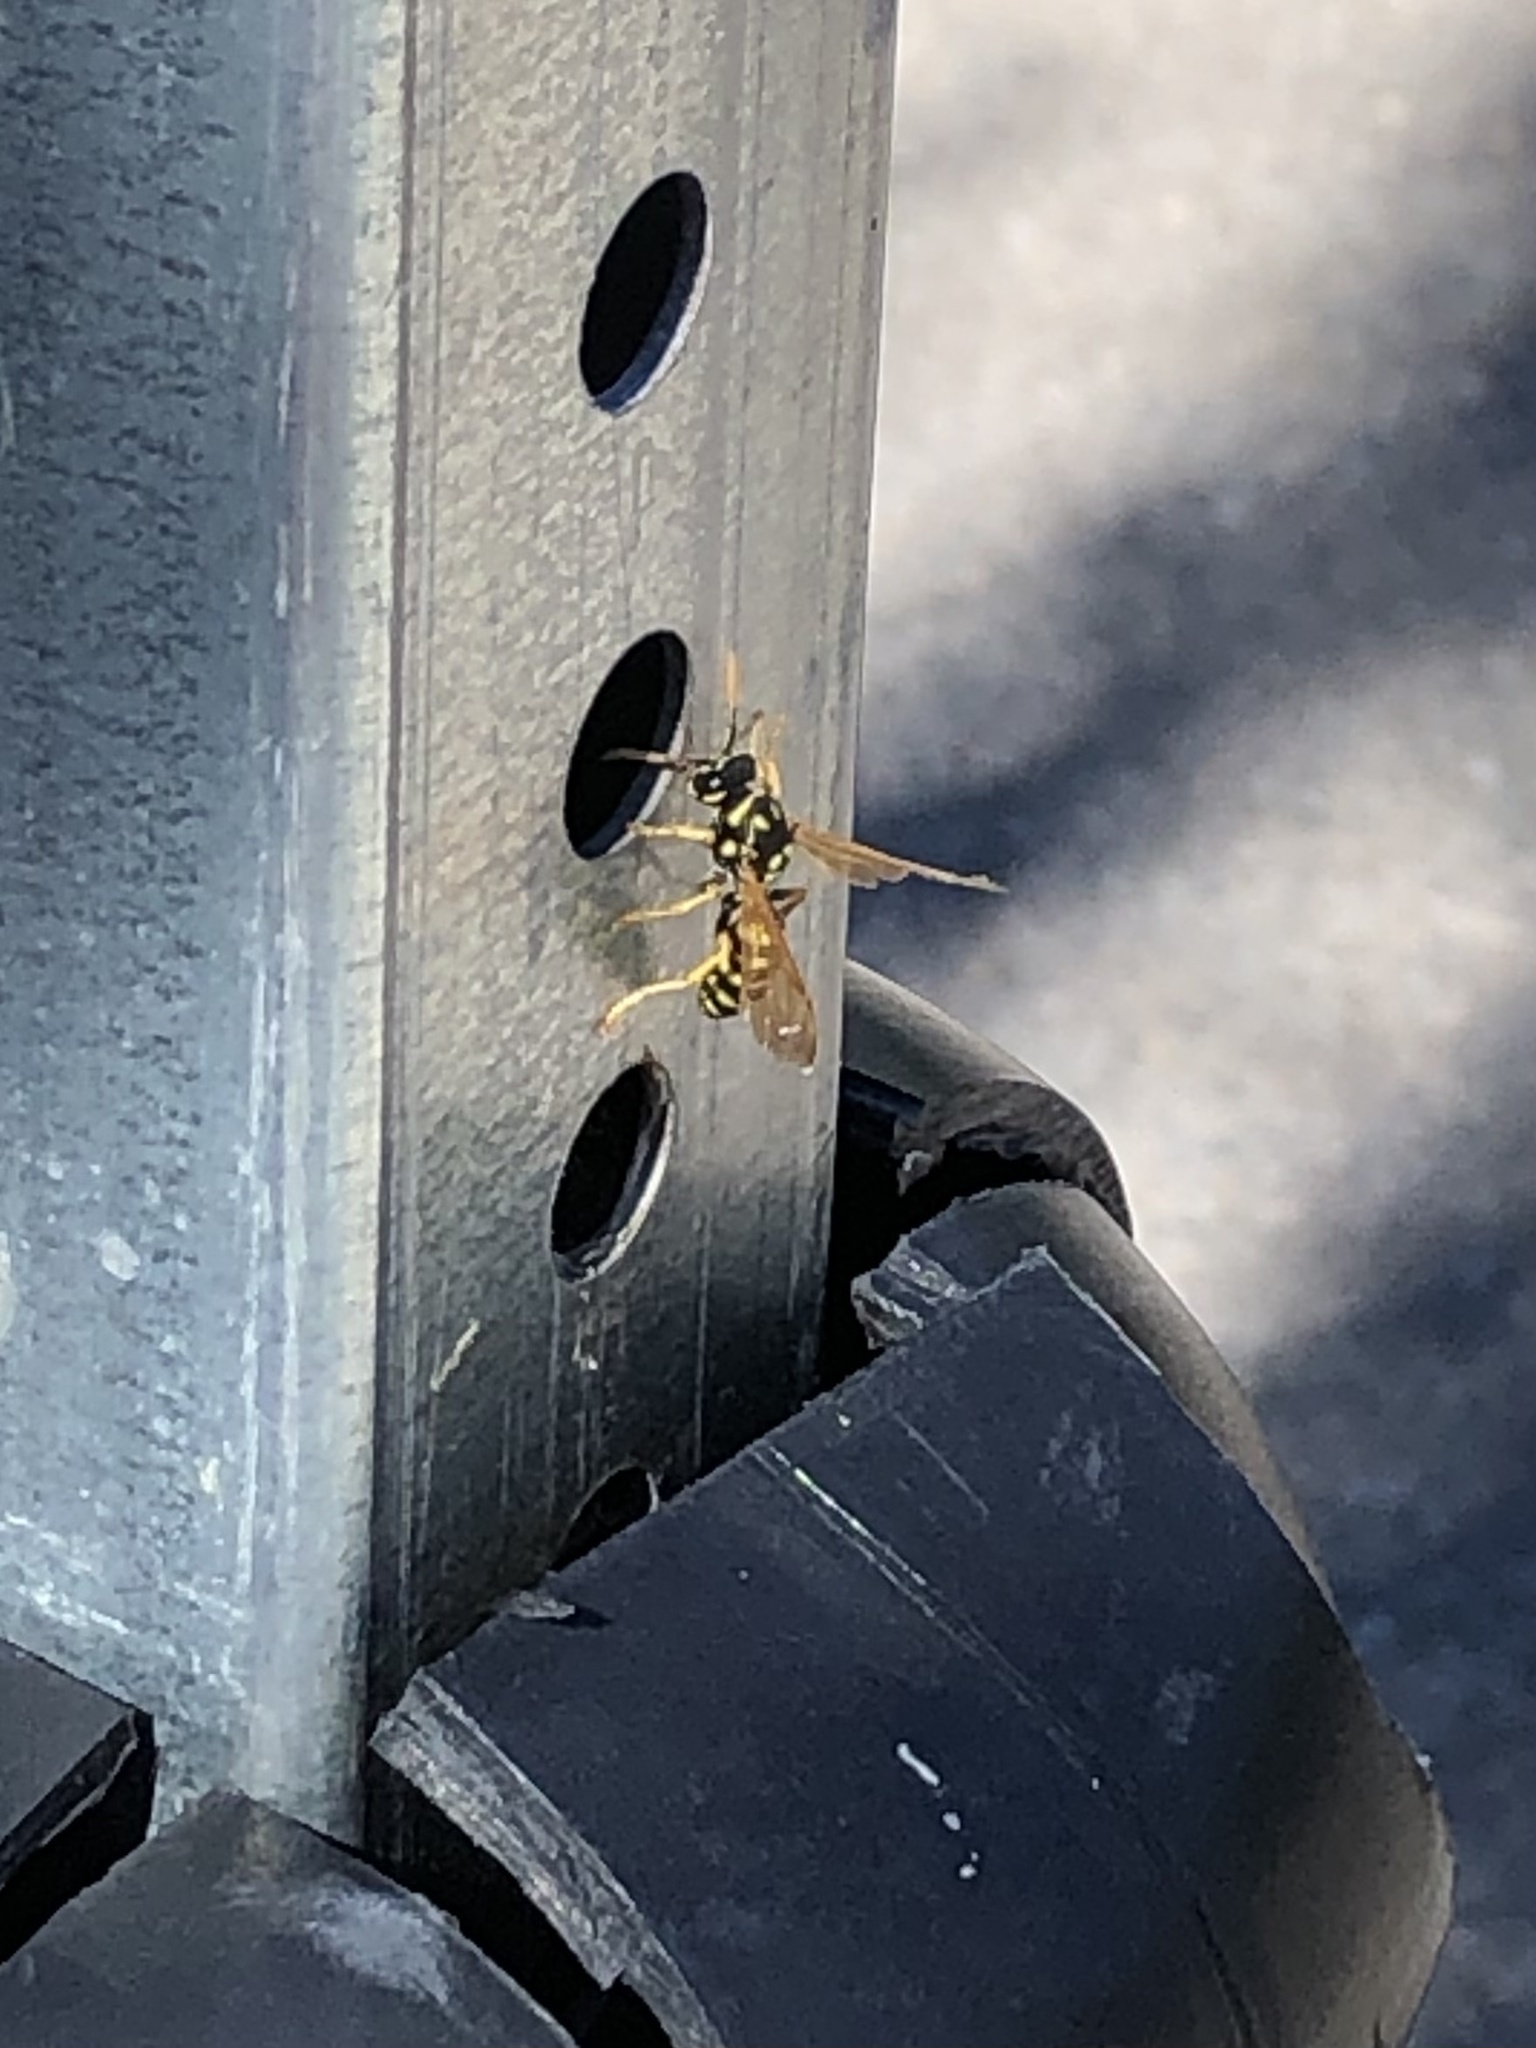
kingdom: Animalia
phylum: Arthropoda
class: Insecta
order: Hymenoptera
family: Eumenidae
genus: Polistes
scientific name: Polistes dominula
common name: Paper wasp
